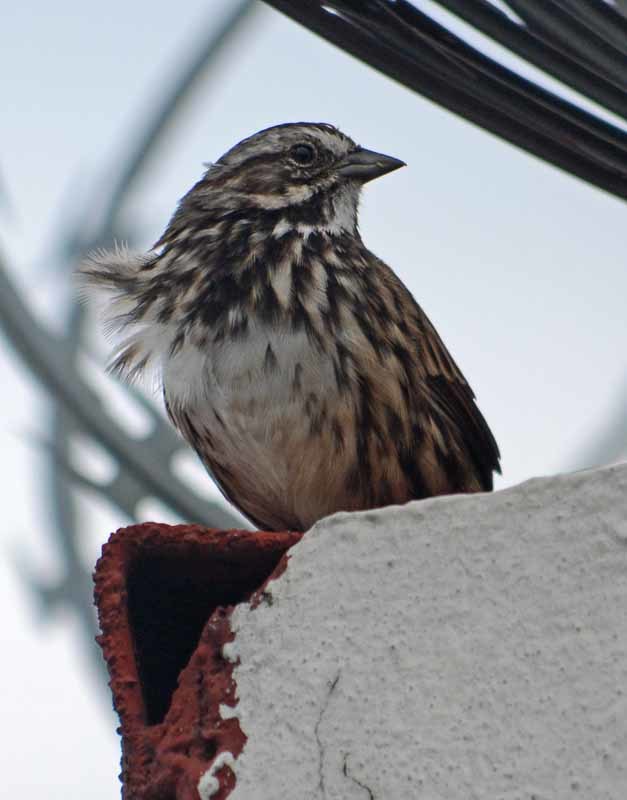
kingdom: Animalia
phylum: Chordata
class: Aves
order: Passeriformes
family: Passerellidae
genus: Melospiza
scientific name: Melospiza melodia
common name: Song sparrow
